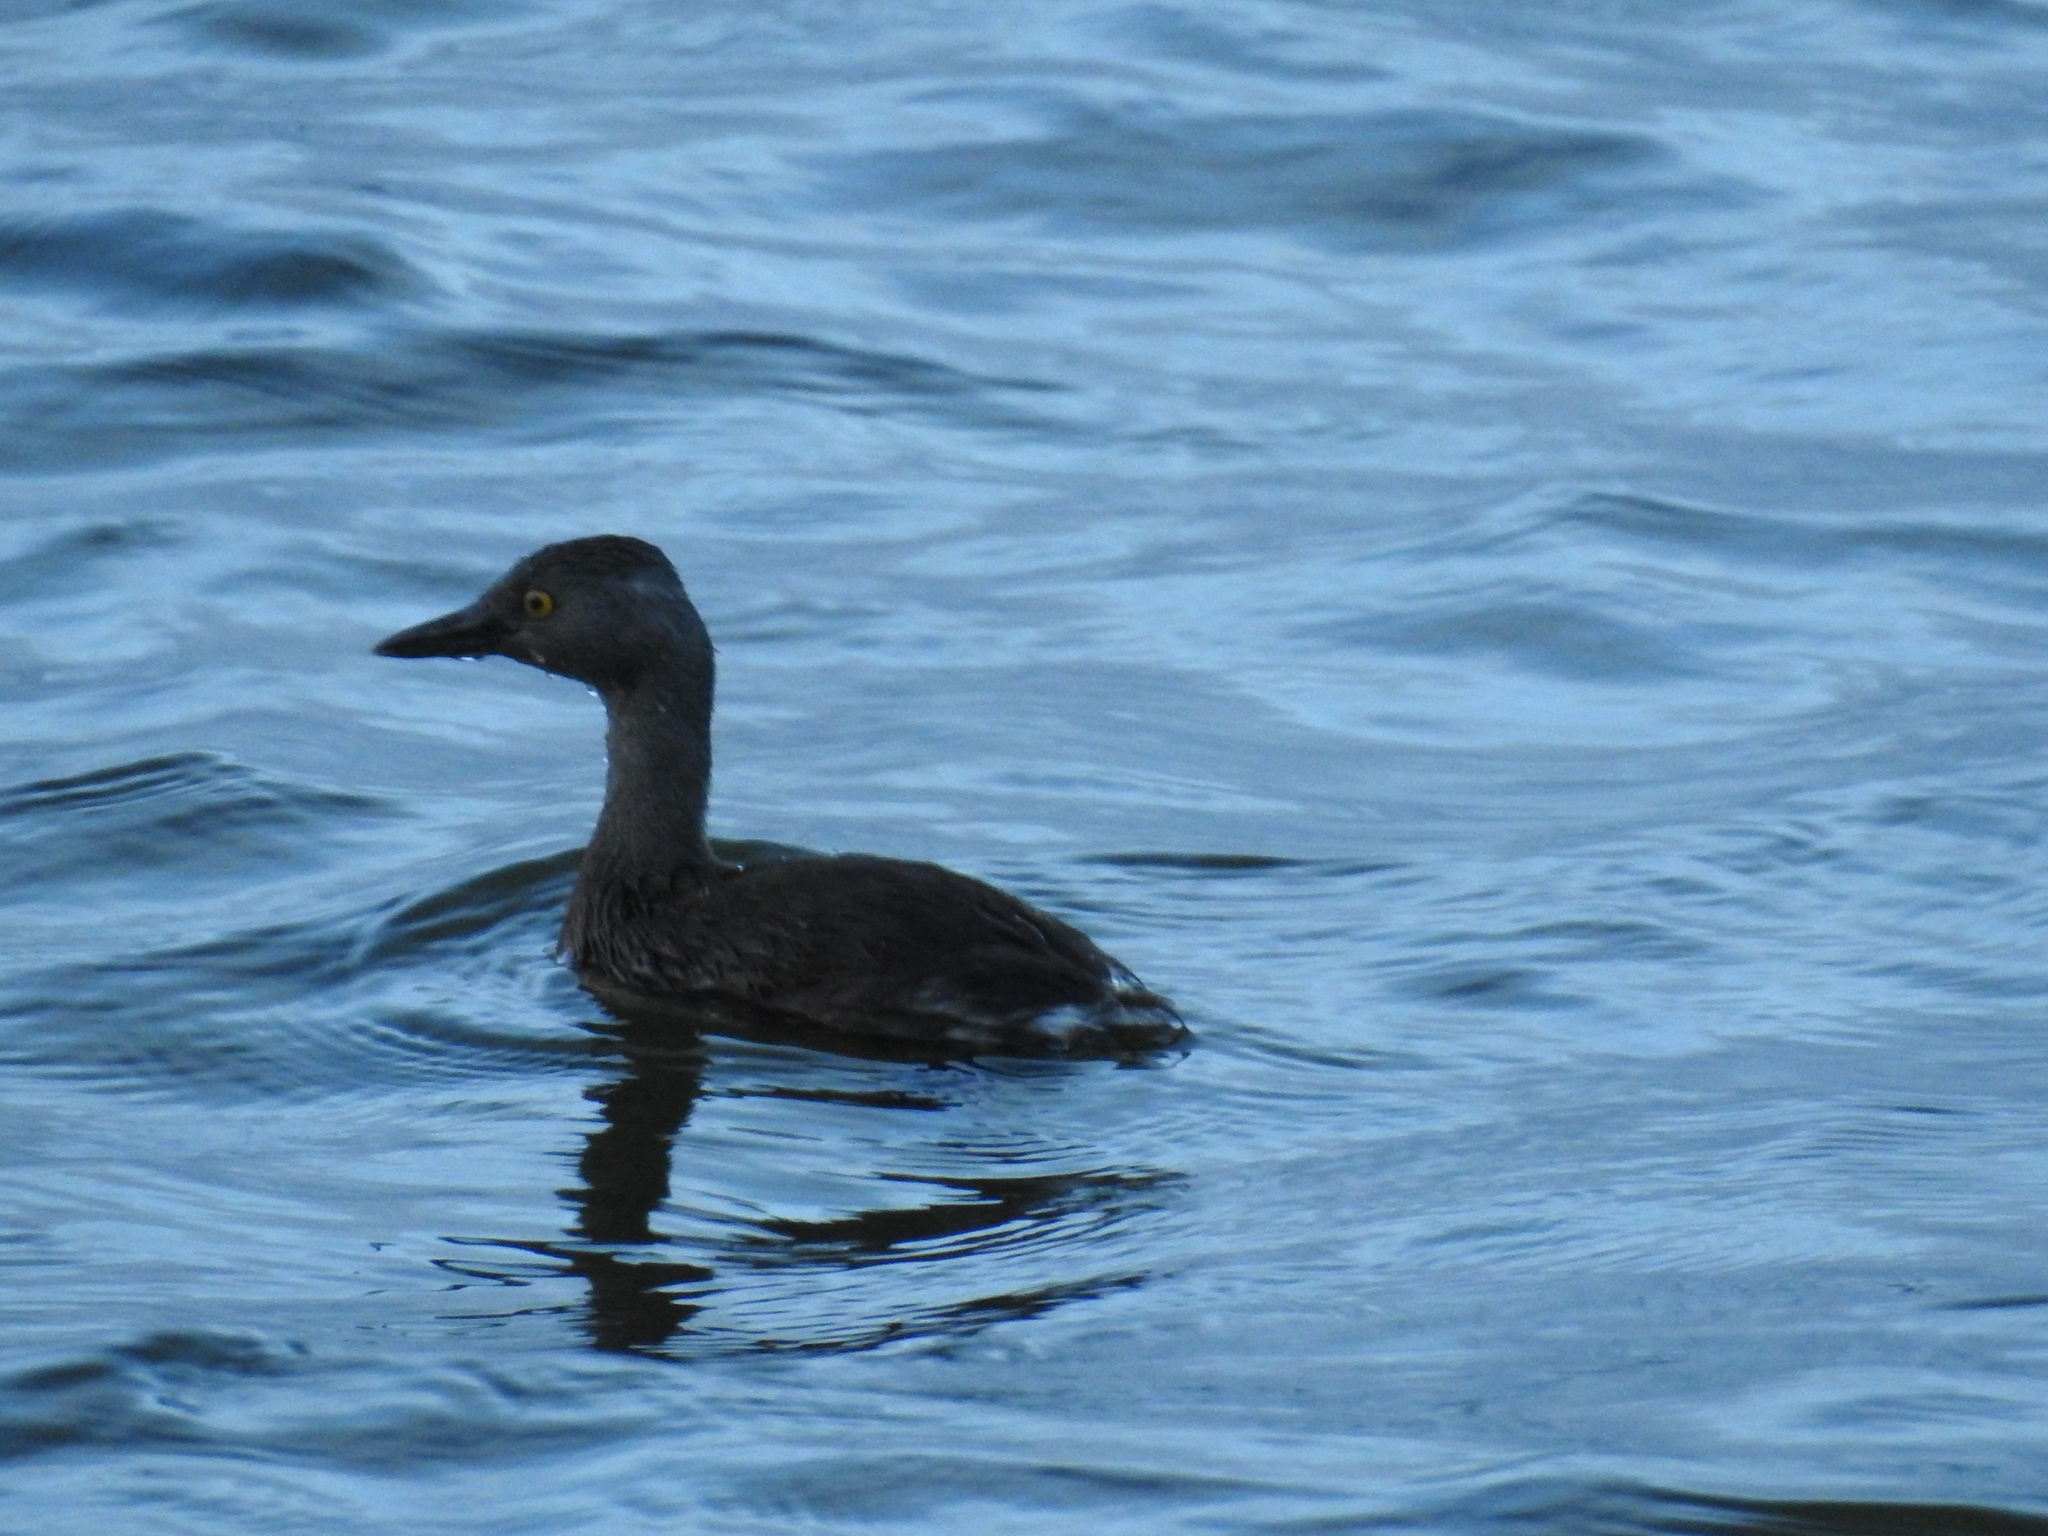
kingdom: Animalia
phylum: Chordata
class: Aves
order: Podicipediformes
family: Podicipedidae
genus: Tachybaptus
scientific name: Tachybaptus dominicus
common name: Least grebe
